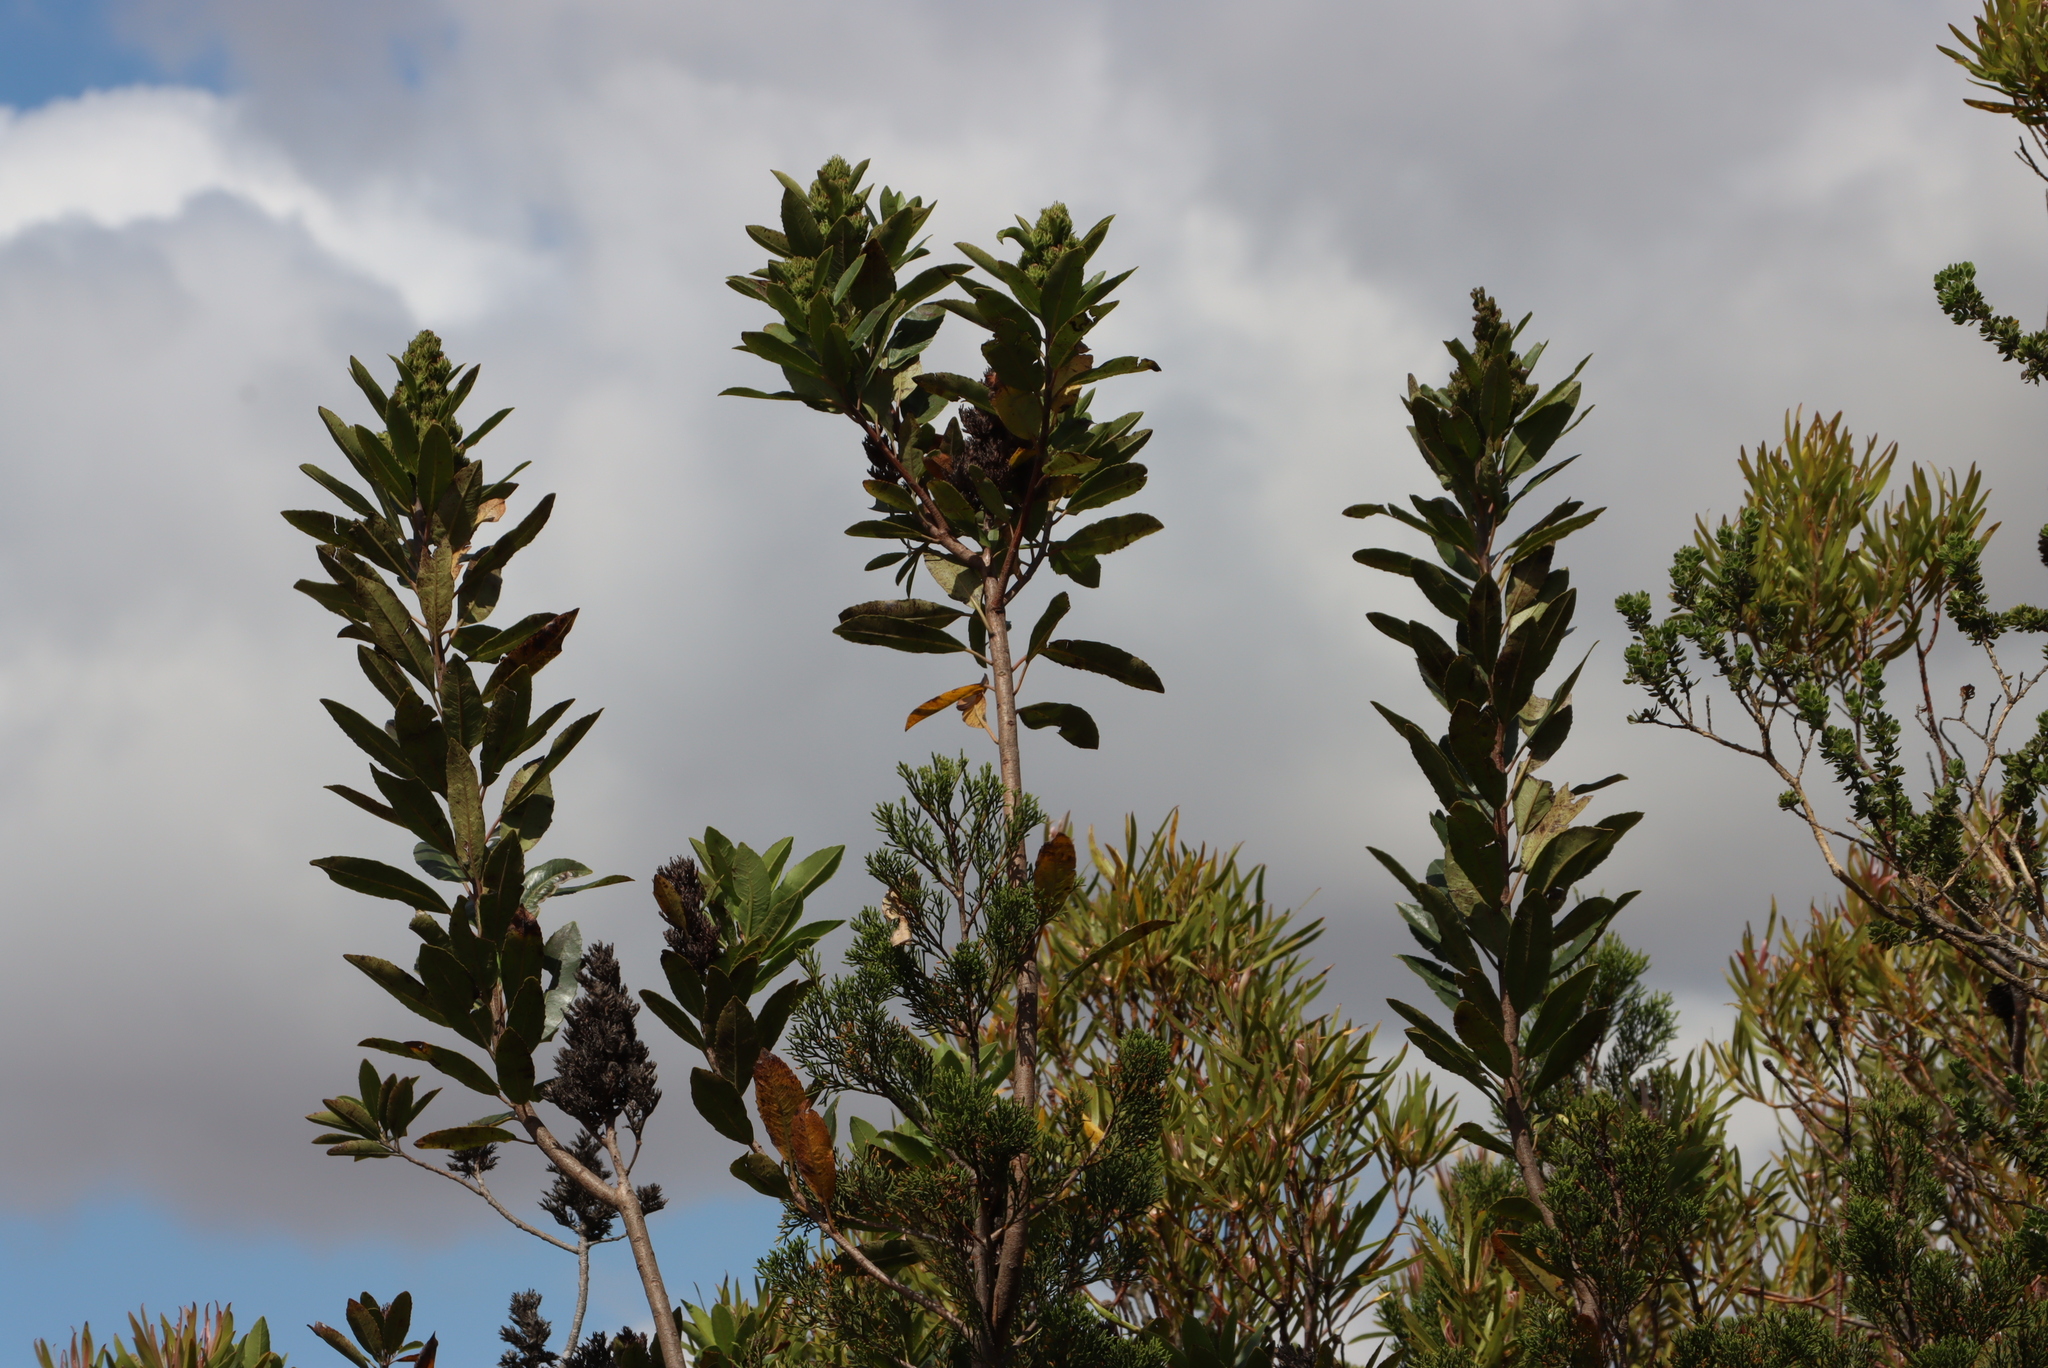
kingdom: Plantae
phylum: Tracheophyta
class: Magnoliopsida
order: Sapindales
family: Anacardiaceae
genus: Laurophyllus
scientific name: Laurophyllus capensis
